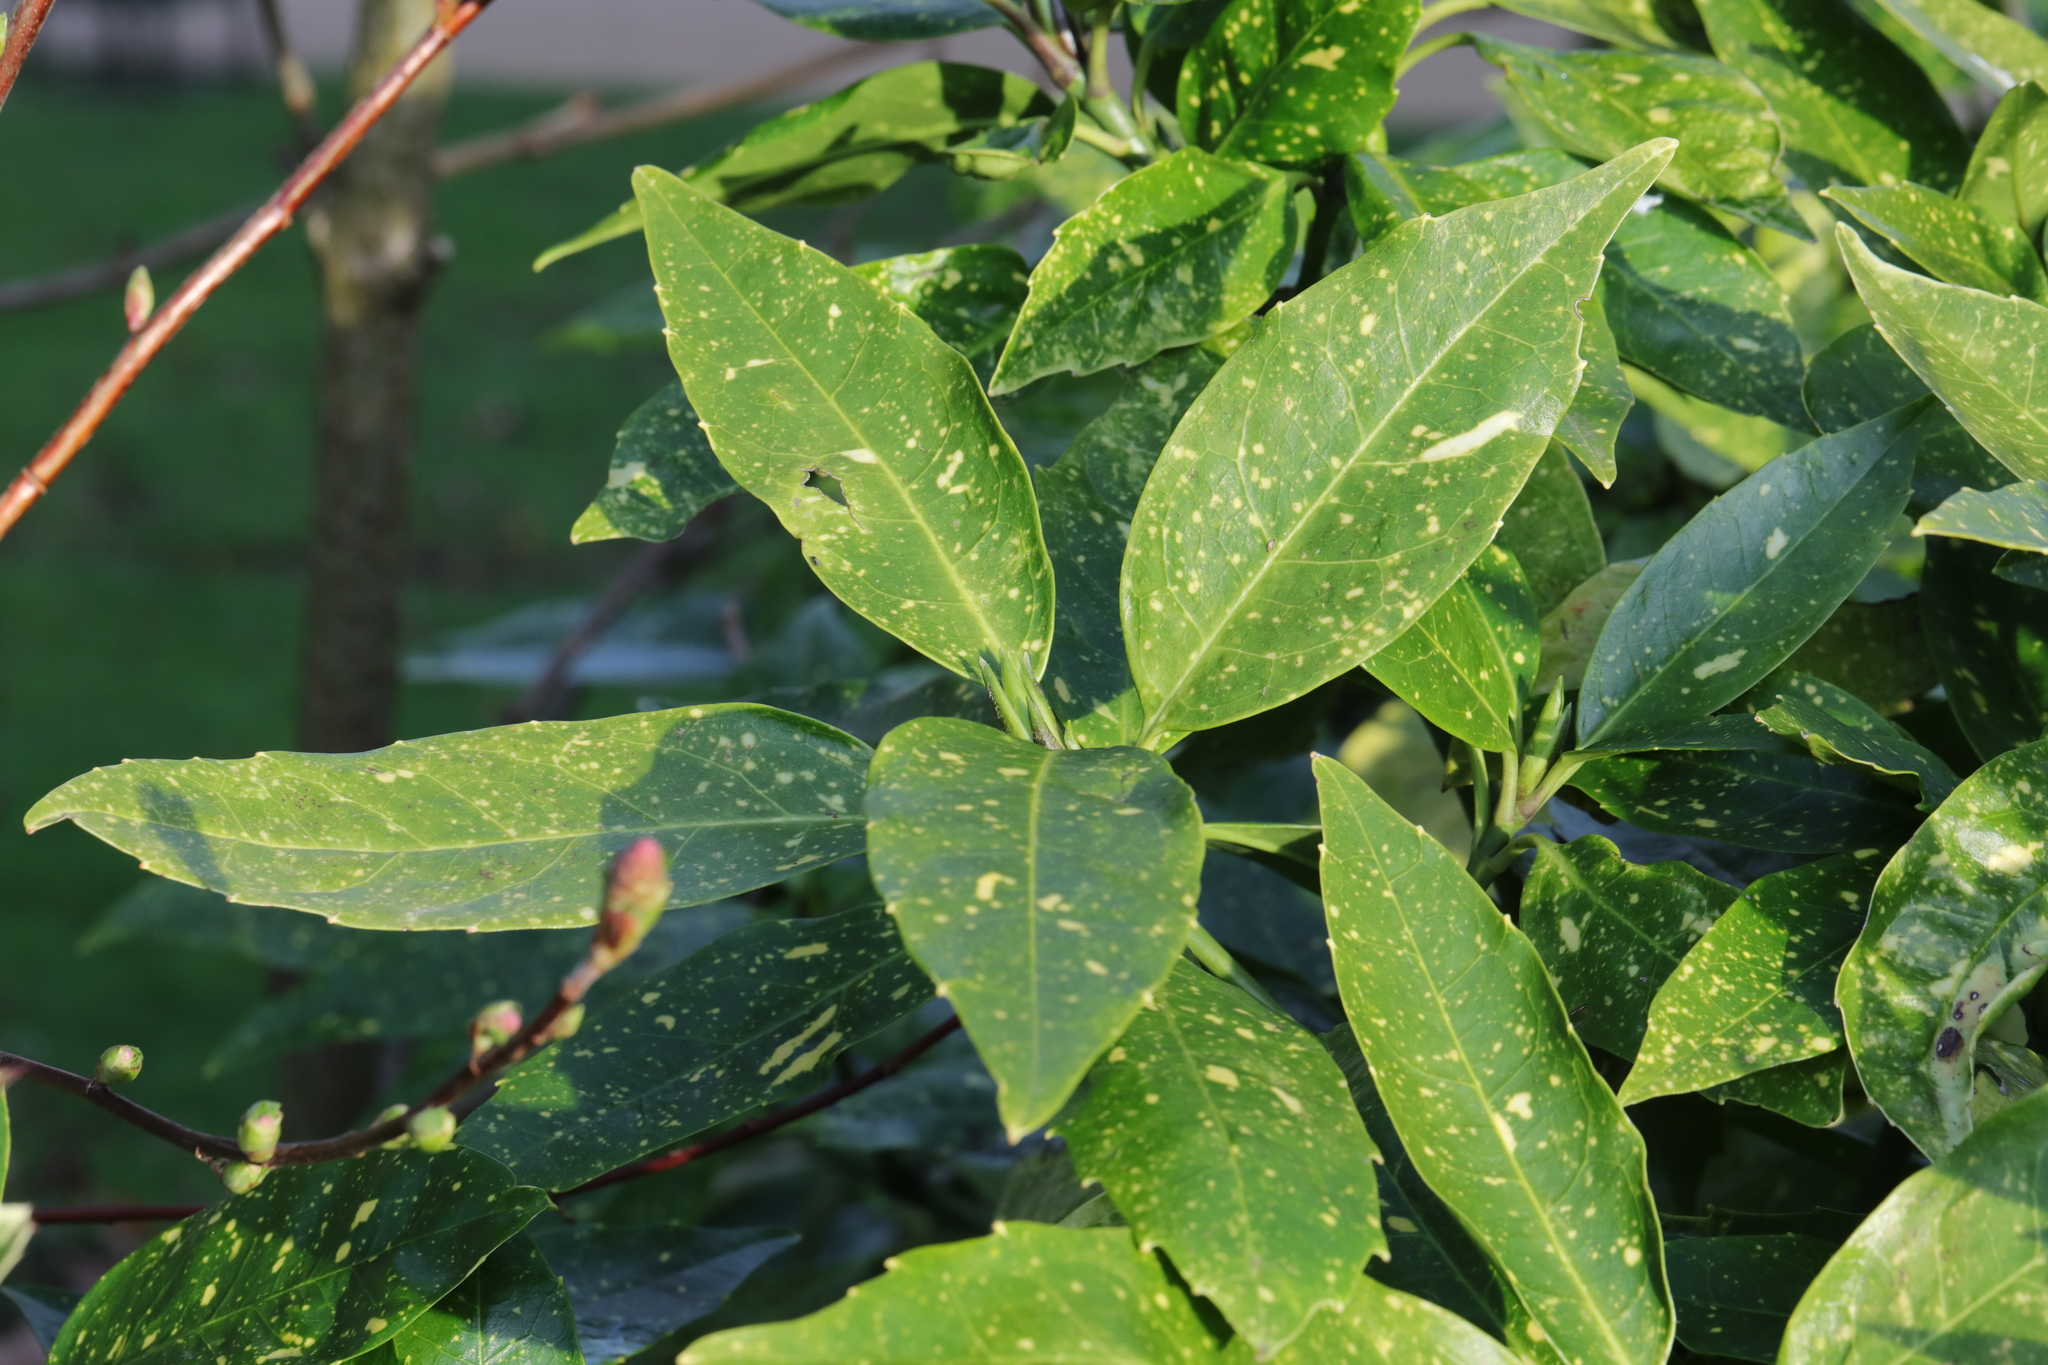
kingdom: Plantae
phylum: Tracheophyta
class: Magnoliopsida
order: Garryales
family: Garryaceae
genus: Aucuba
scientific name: Aucuba japonica
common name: Spotted-laurel
